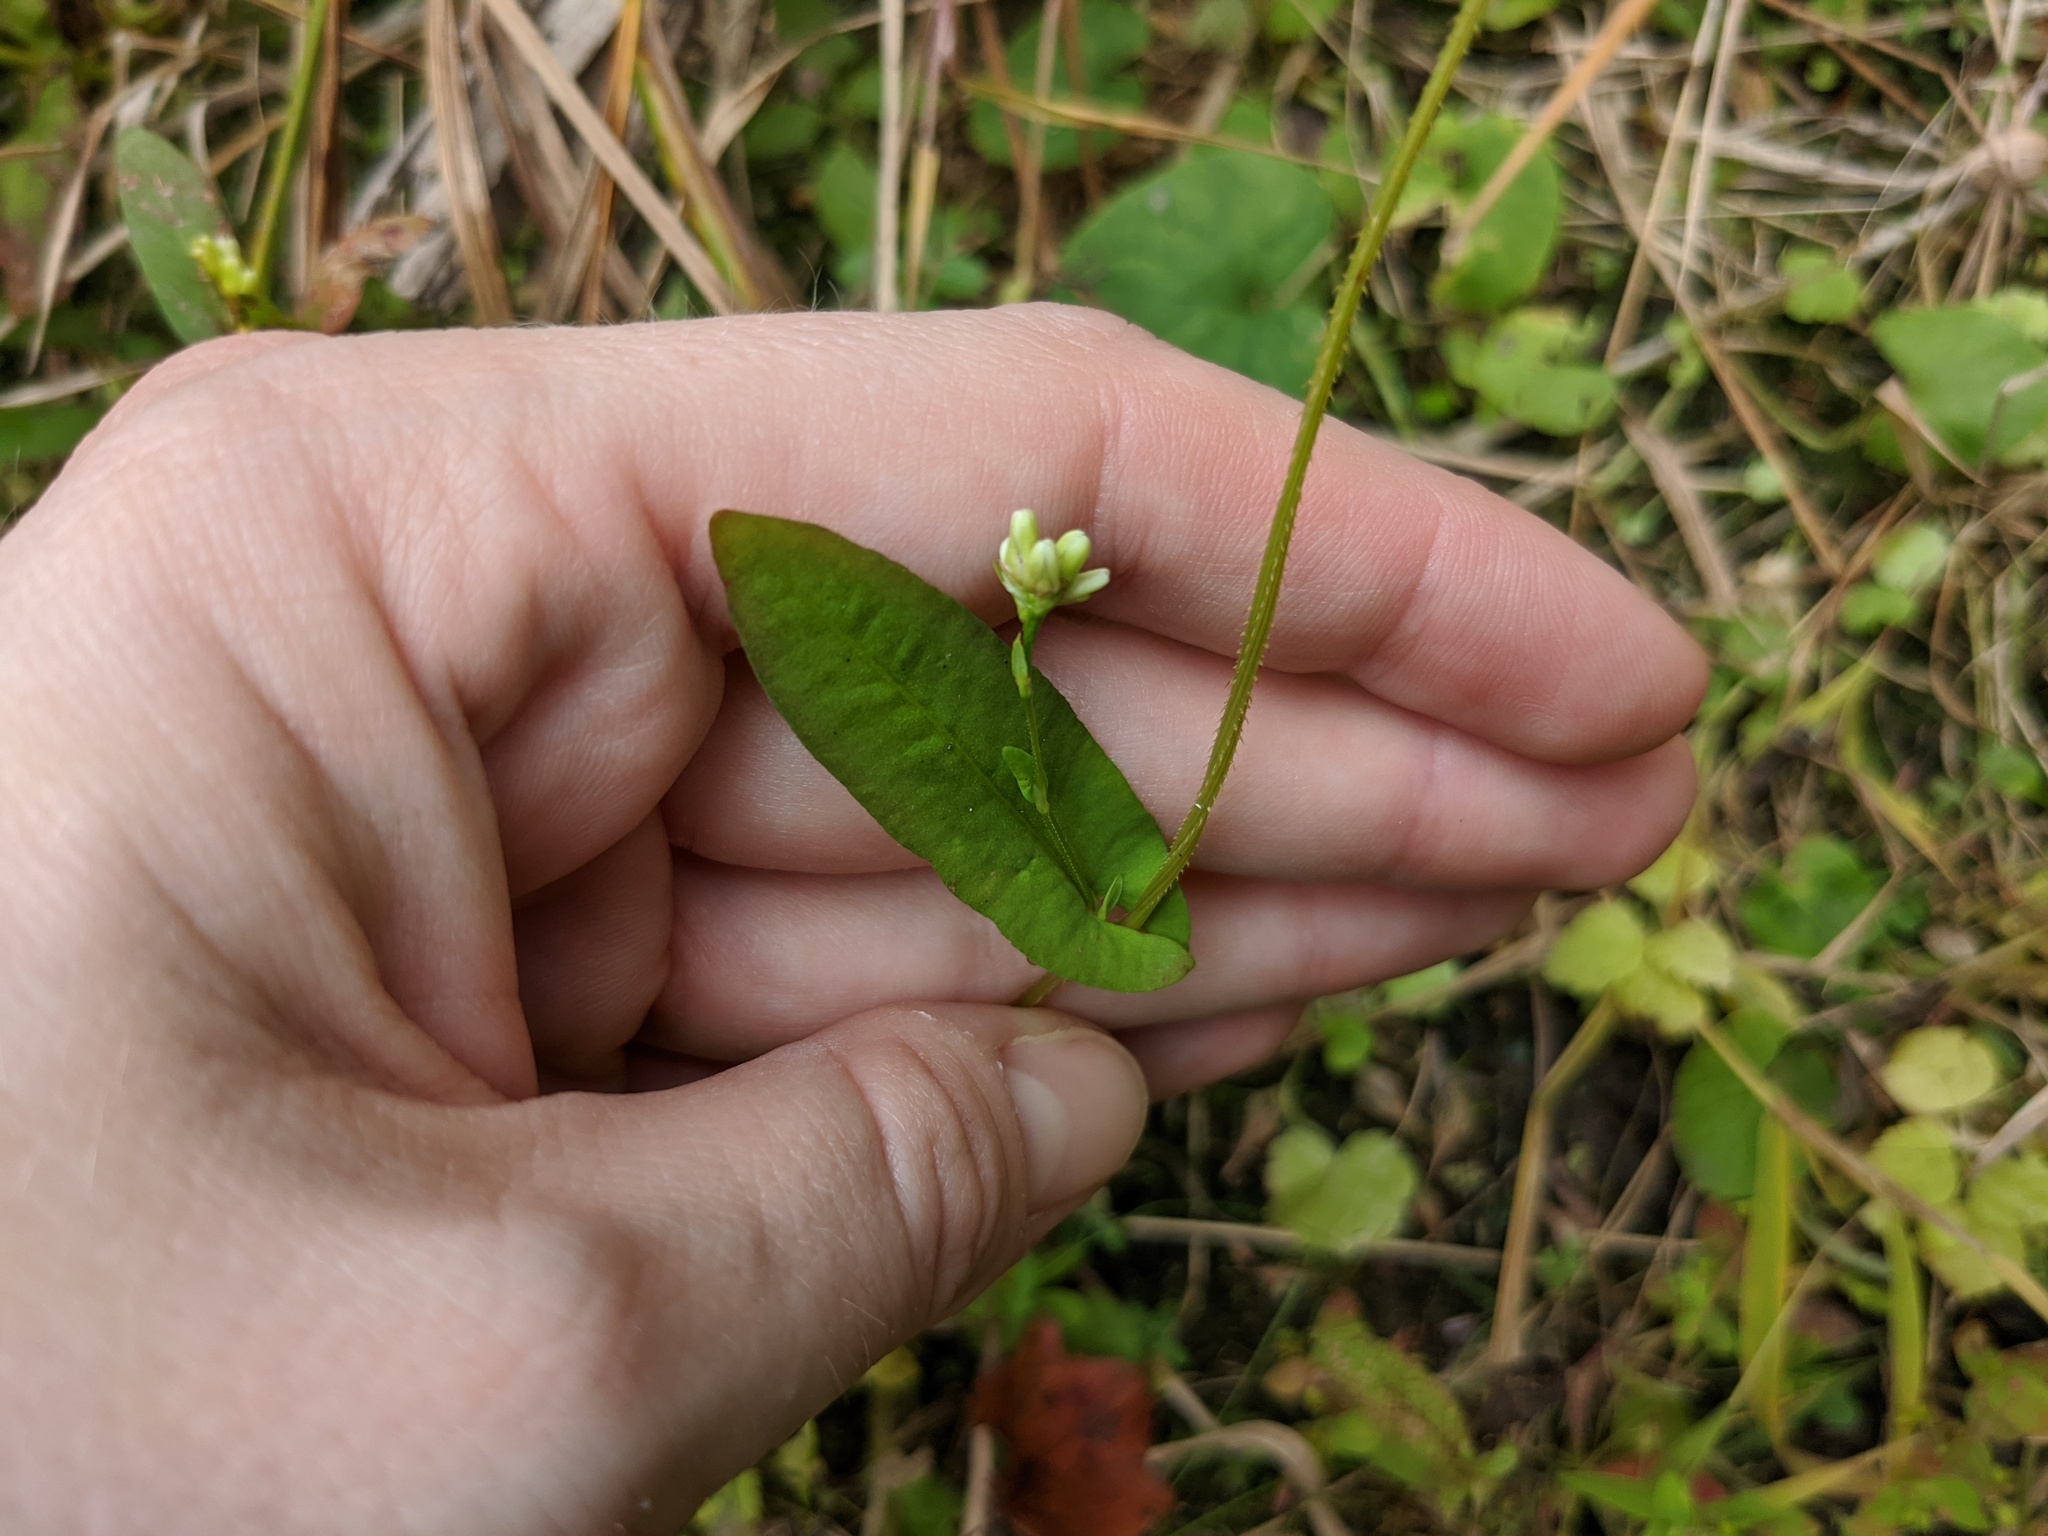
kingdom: Plantae
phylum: Tracheophyta
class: Magnoliopsida
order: Caryophyllales
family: Polygonaceae
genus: Persicaria
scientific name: Persicaria sagittata
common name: American tearthumb
